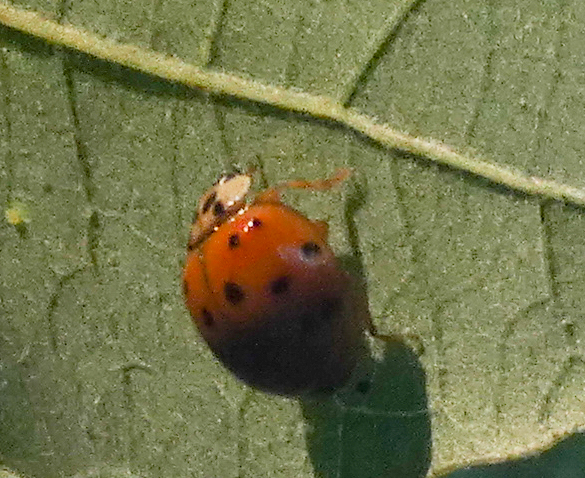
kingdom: Animalia
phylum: Arthropoda
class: Insecta
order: Coleoptera
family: Coccinellidae
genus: Harmonia
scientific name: Harmonia axyridis
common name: Harlequin ladybird
